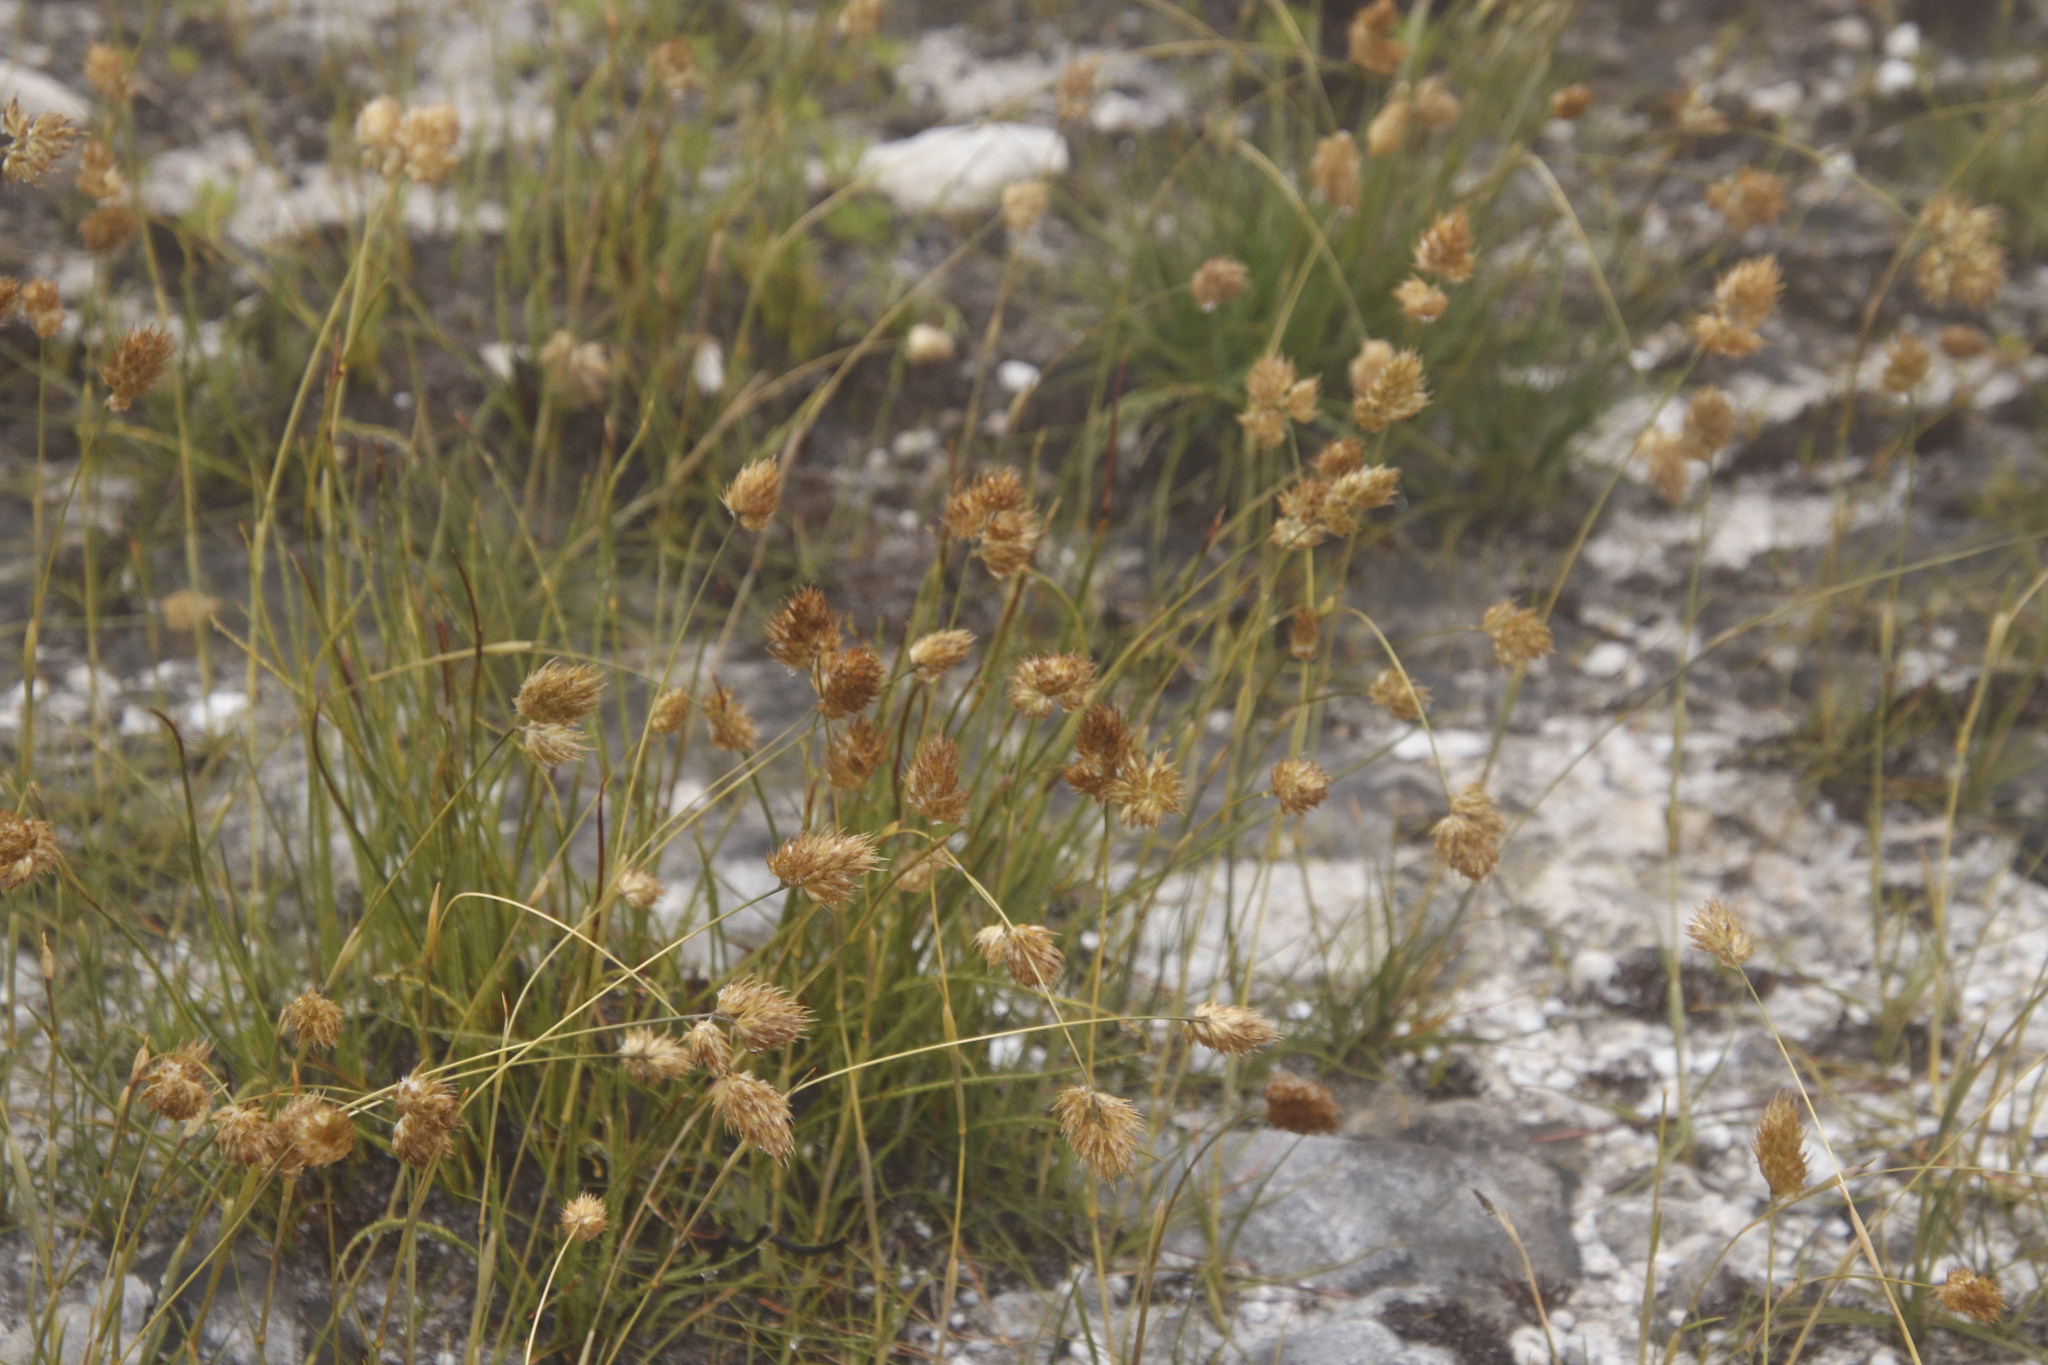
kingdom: Plantae
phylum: Tracheophyta
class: Liliopsida
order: Poales
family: Poaceae
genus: Geochloa
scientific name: Geochloa rufa
